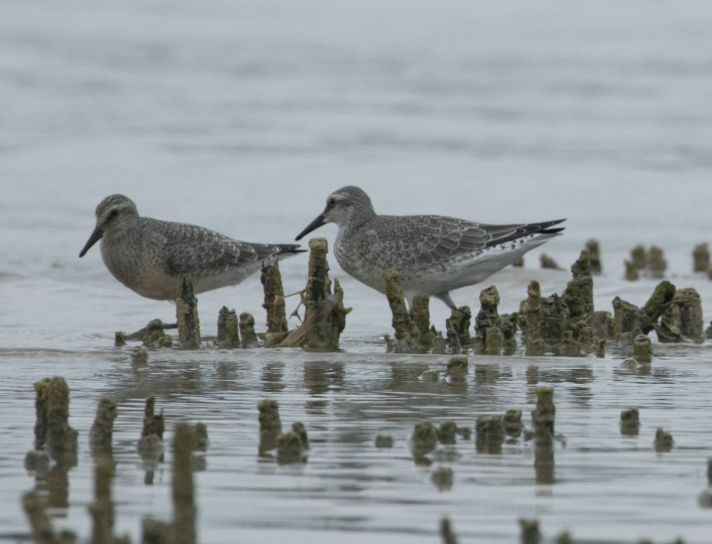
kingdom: Animalia
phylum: Chordata
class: Aves
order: Charadriiformes
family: Scolopacidae
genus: Calidris
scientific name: Calidris canutus
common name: Red knot
